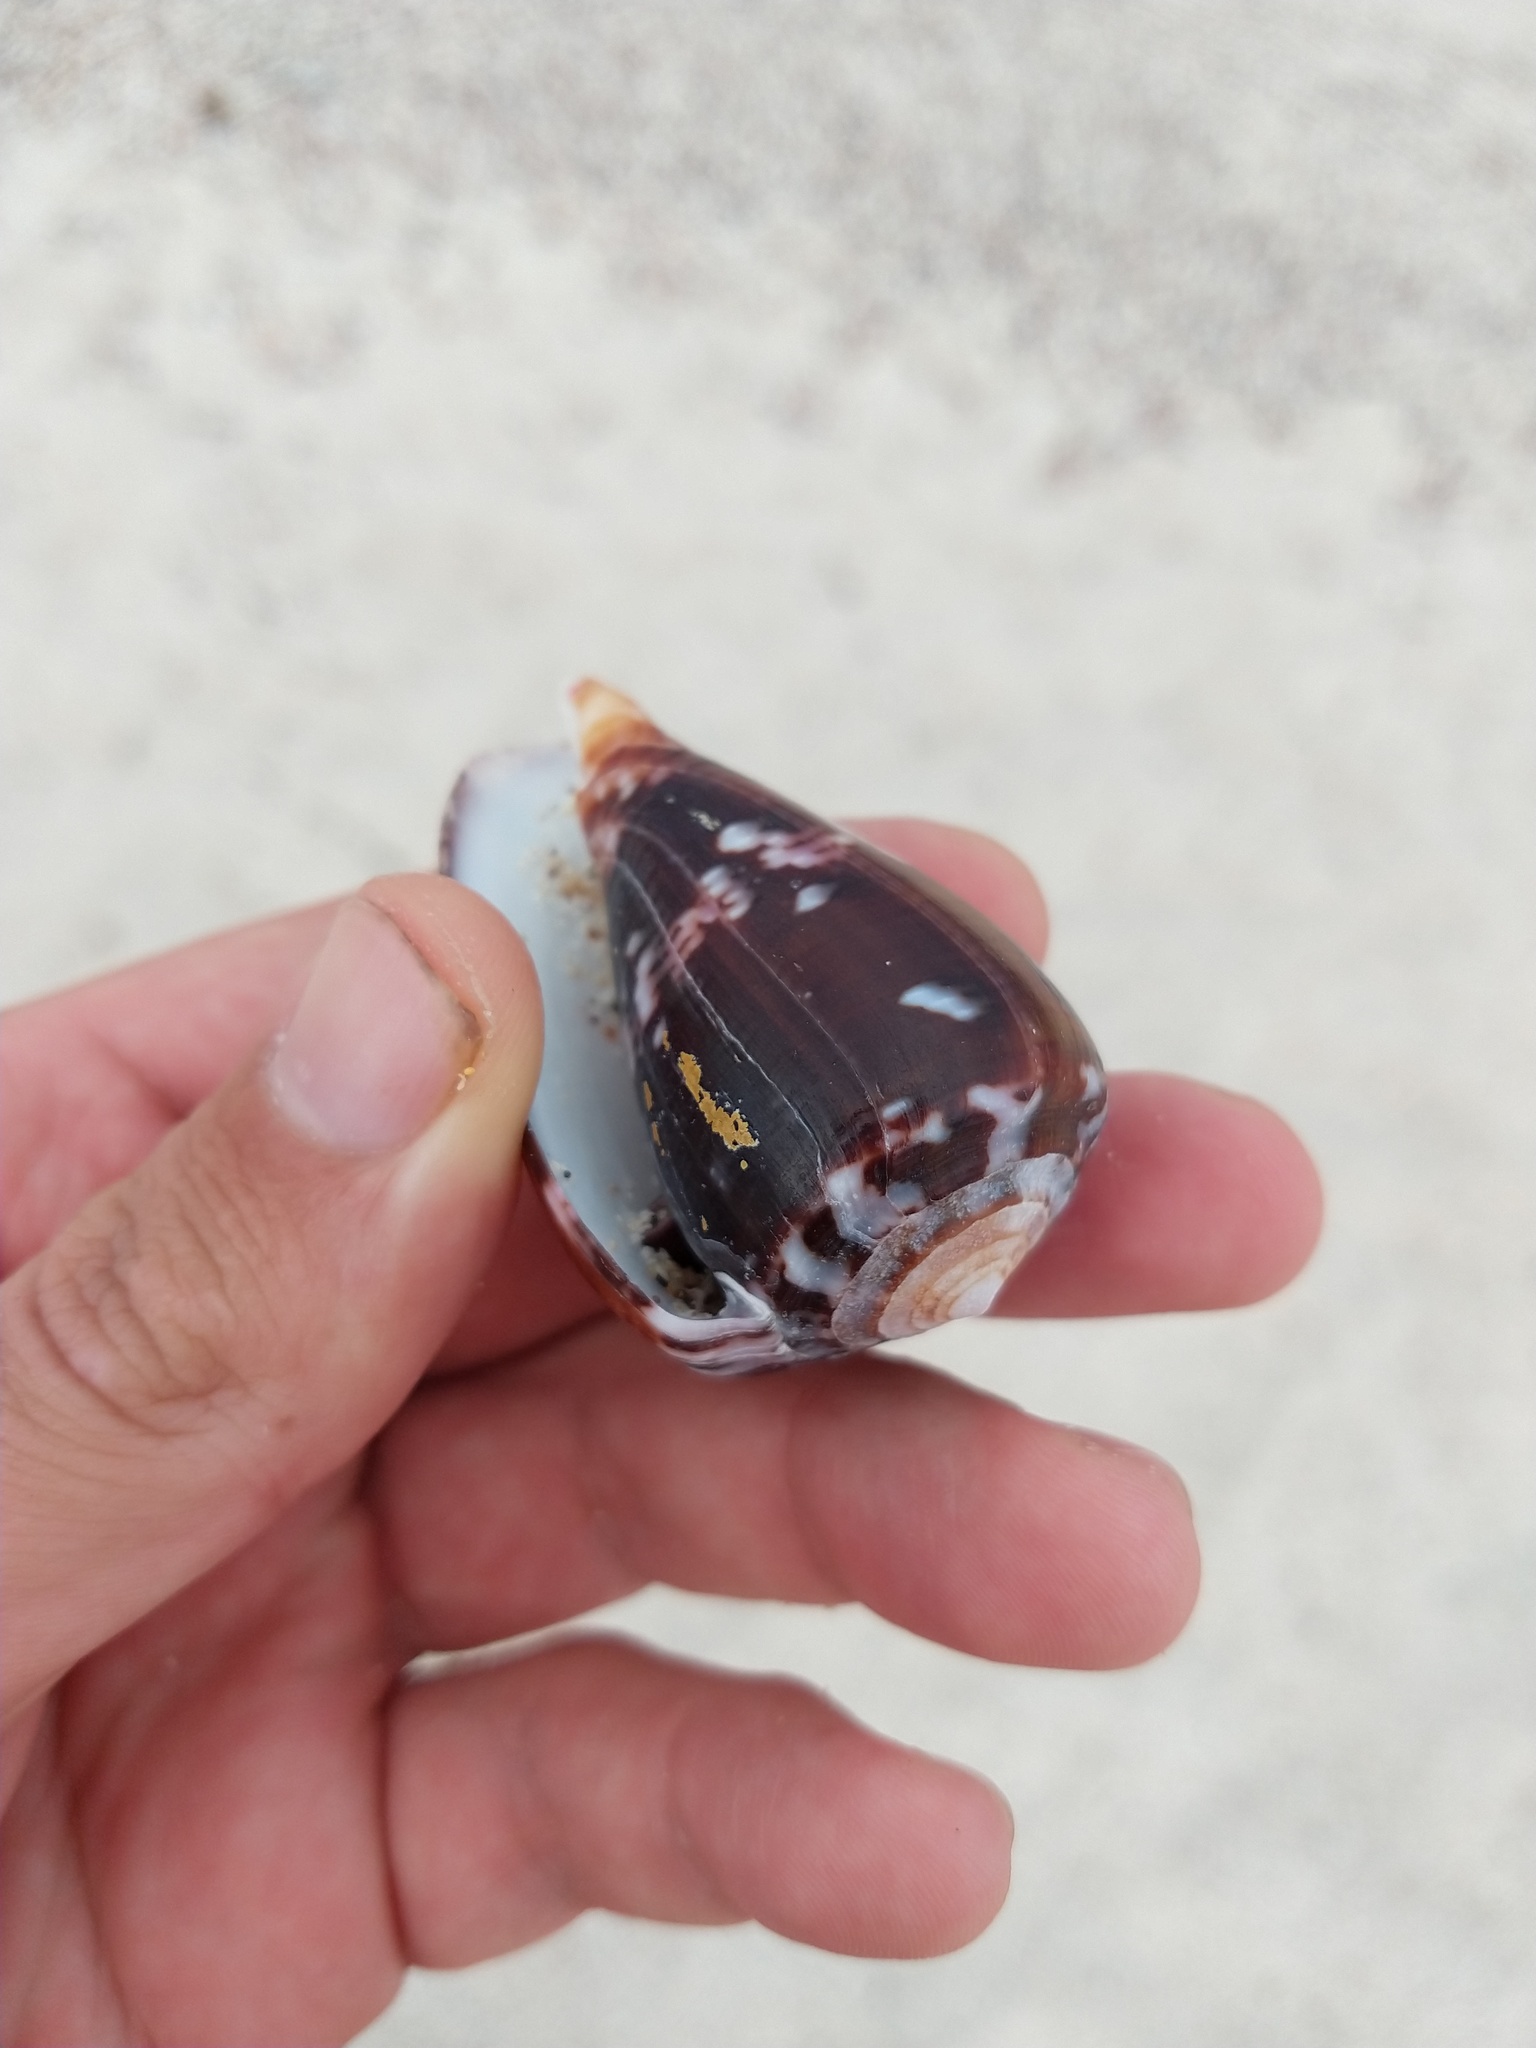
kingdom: Animalia
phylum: Mollusca
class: Gastropoda
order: Neogastropoda
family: Conidae
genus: Conus
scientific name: Conus purpurascens
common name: Purple cone
